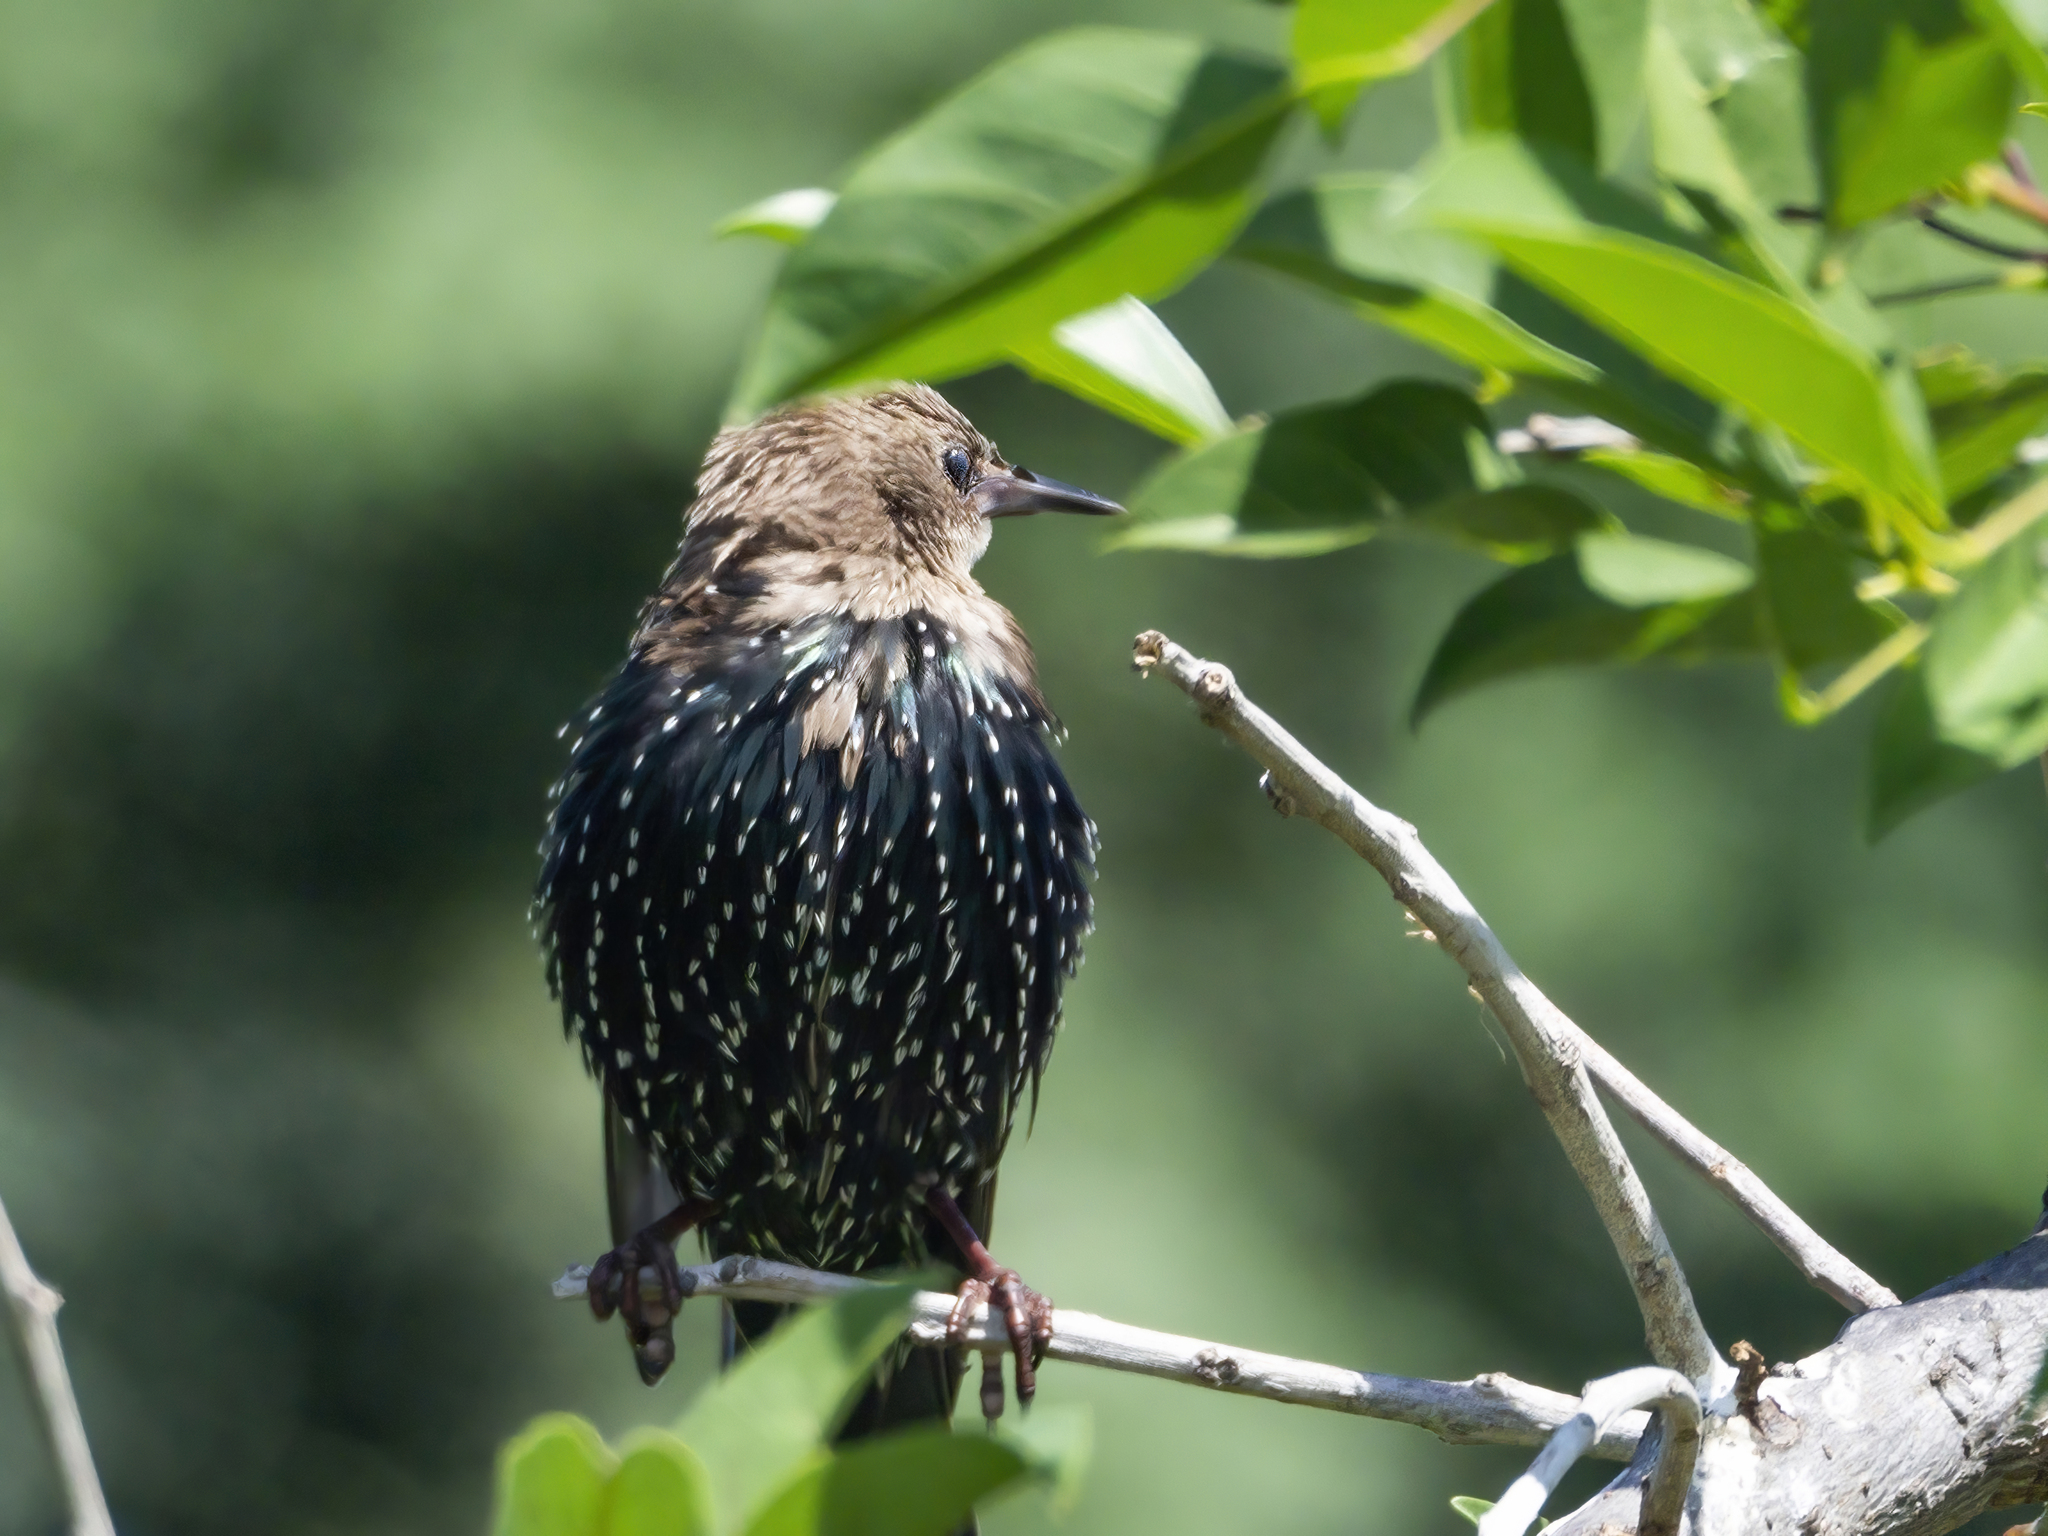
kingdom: Animalia
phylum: Chordata
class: Aves
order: Passeriformes
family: Sturnidae
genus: Sturnus
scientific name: Sturnus vulgaris
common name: Common starling
